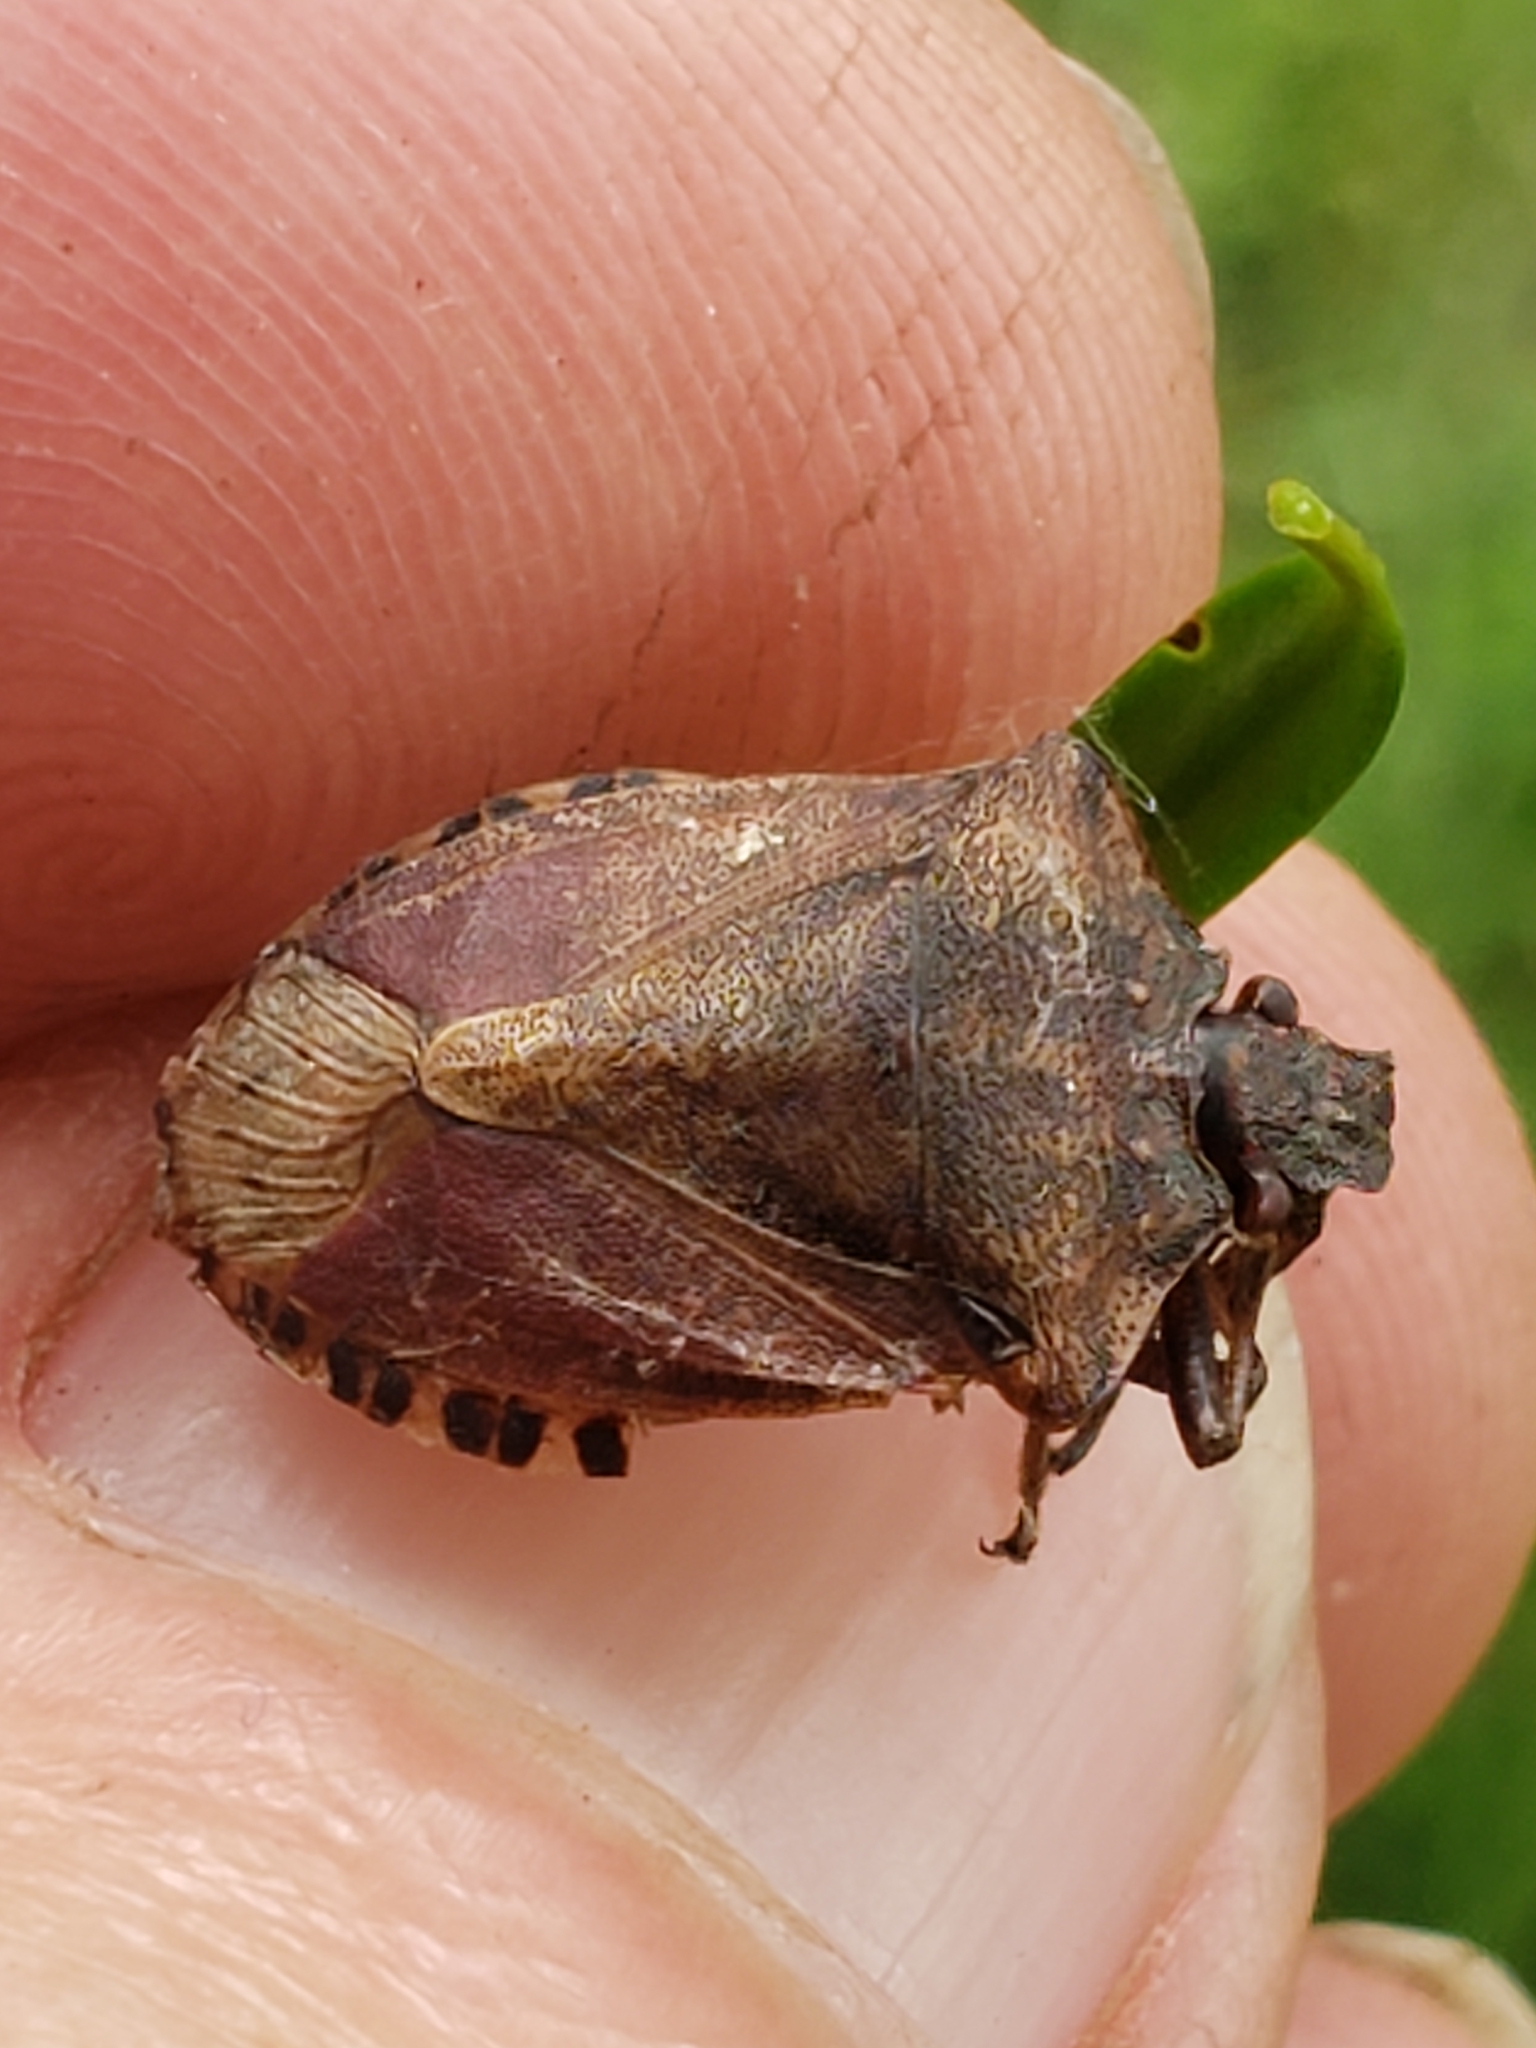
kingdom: Animalia
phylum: Arthropoda
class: Insecta
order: Hemiptera
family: Pentatomidae
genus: Halyomorpha
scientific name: Halyomorpha halys
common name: Brown marmorated stink bug
